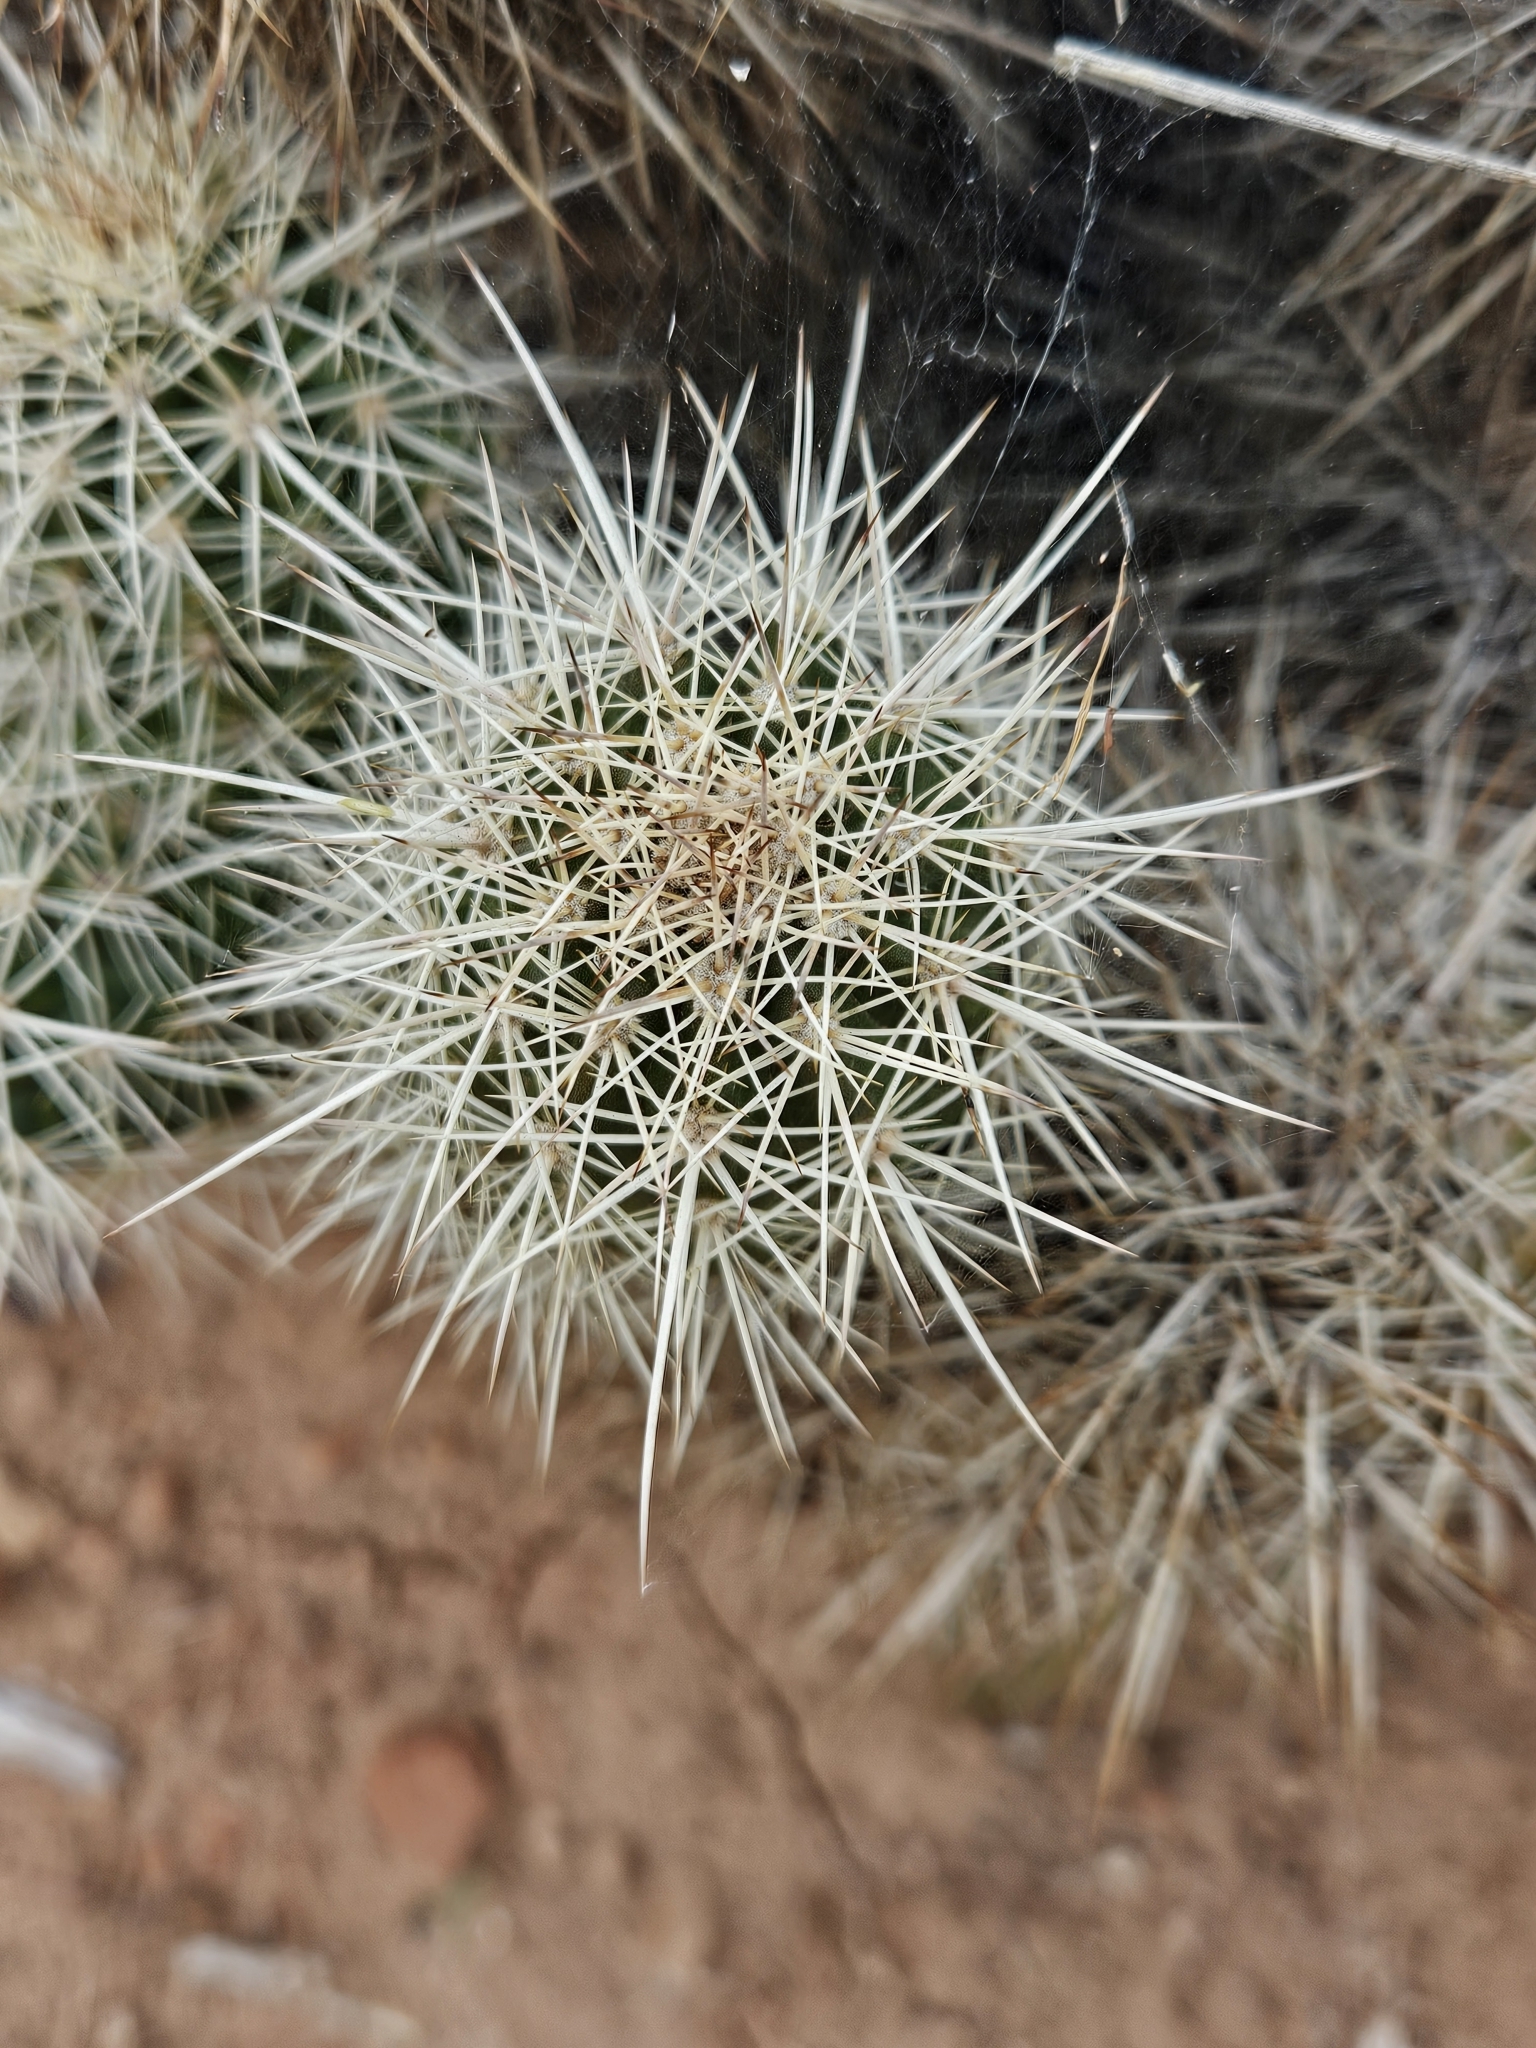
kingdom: Plantae
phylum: Tracheophyta
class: Magnoliopsida
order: Caryophyllales
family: Cactaceae
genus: Echinocereus
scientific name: Echinocereus bakeri
